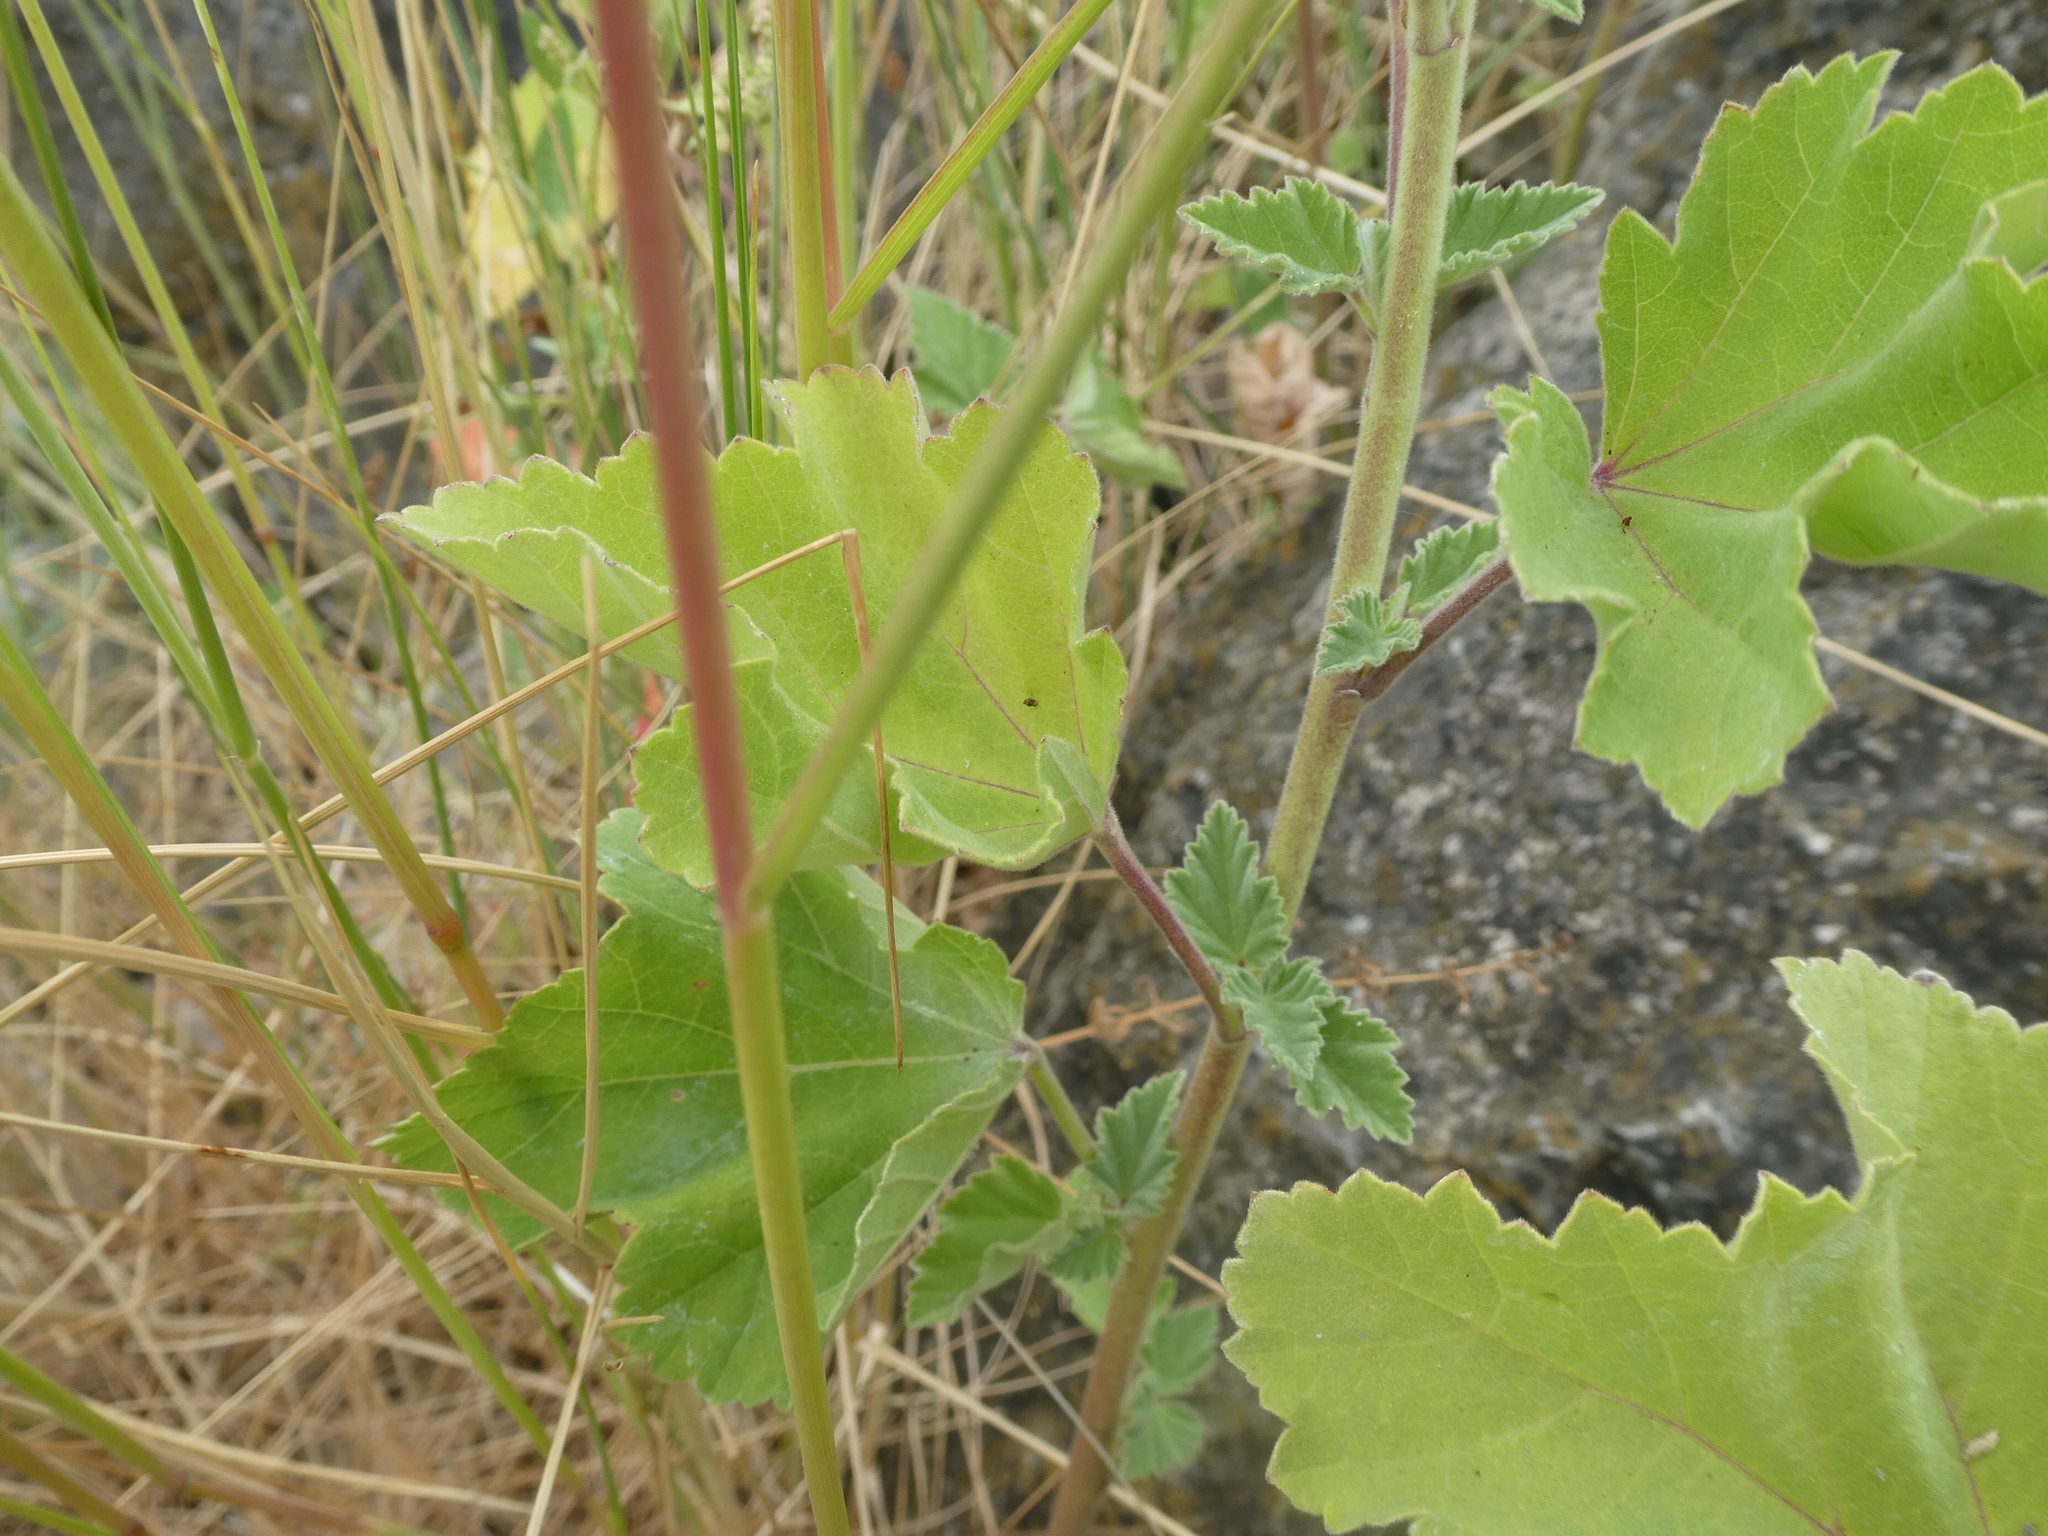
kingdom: Plantae
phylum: Tracheophyta
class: Magnoliopsida
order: Malvales
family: Malvaceae
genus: Althaea
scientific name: Althaea officinalis
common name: Marsh-mallow
